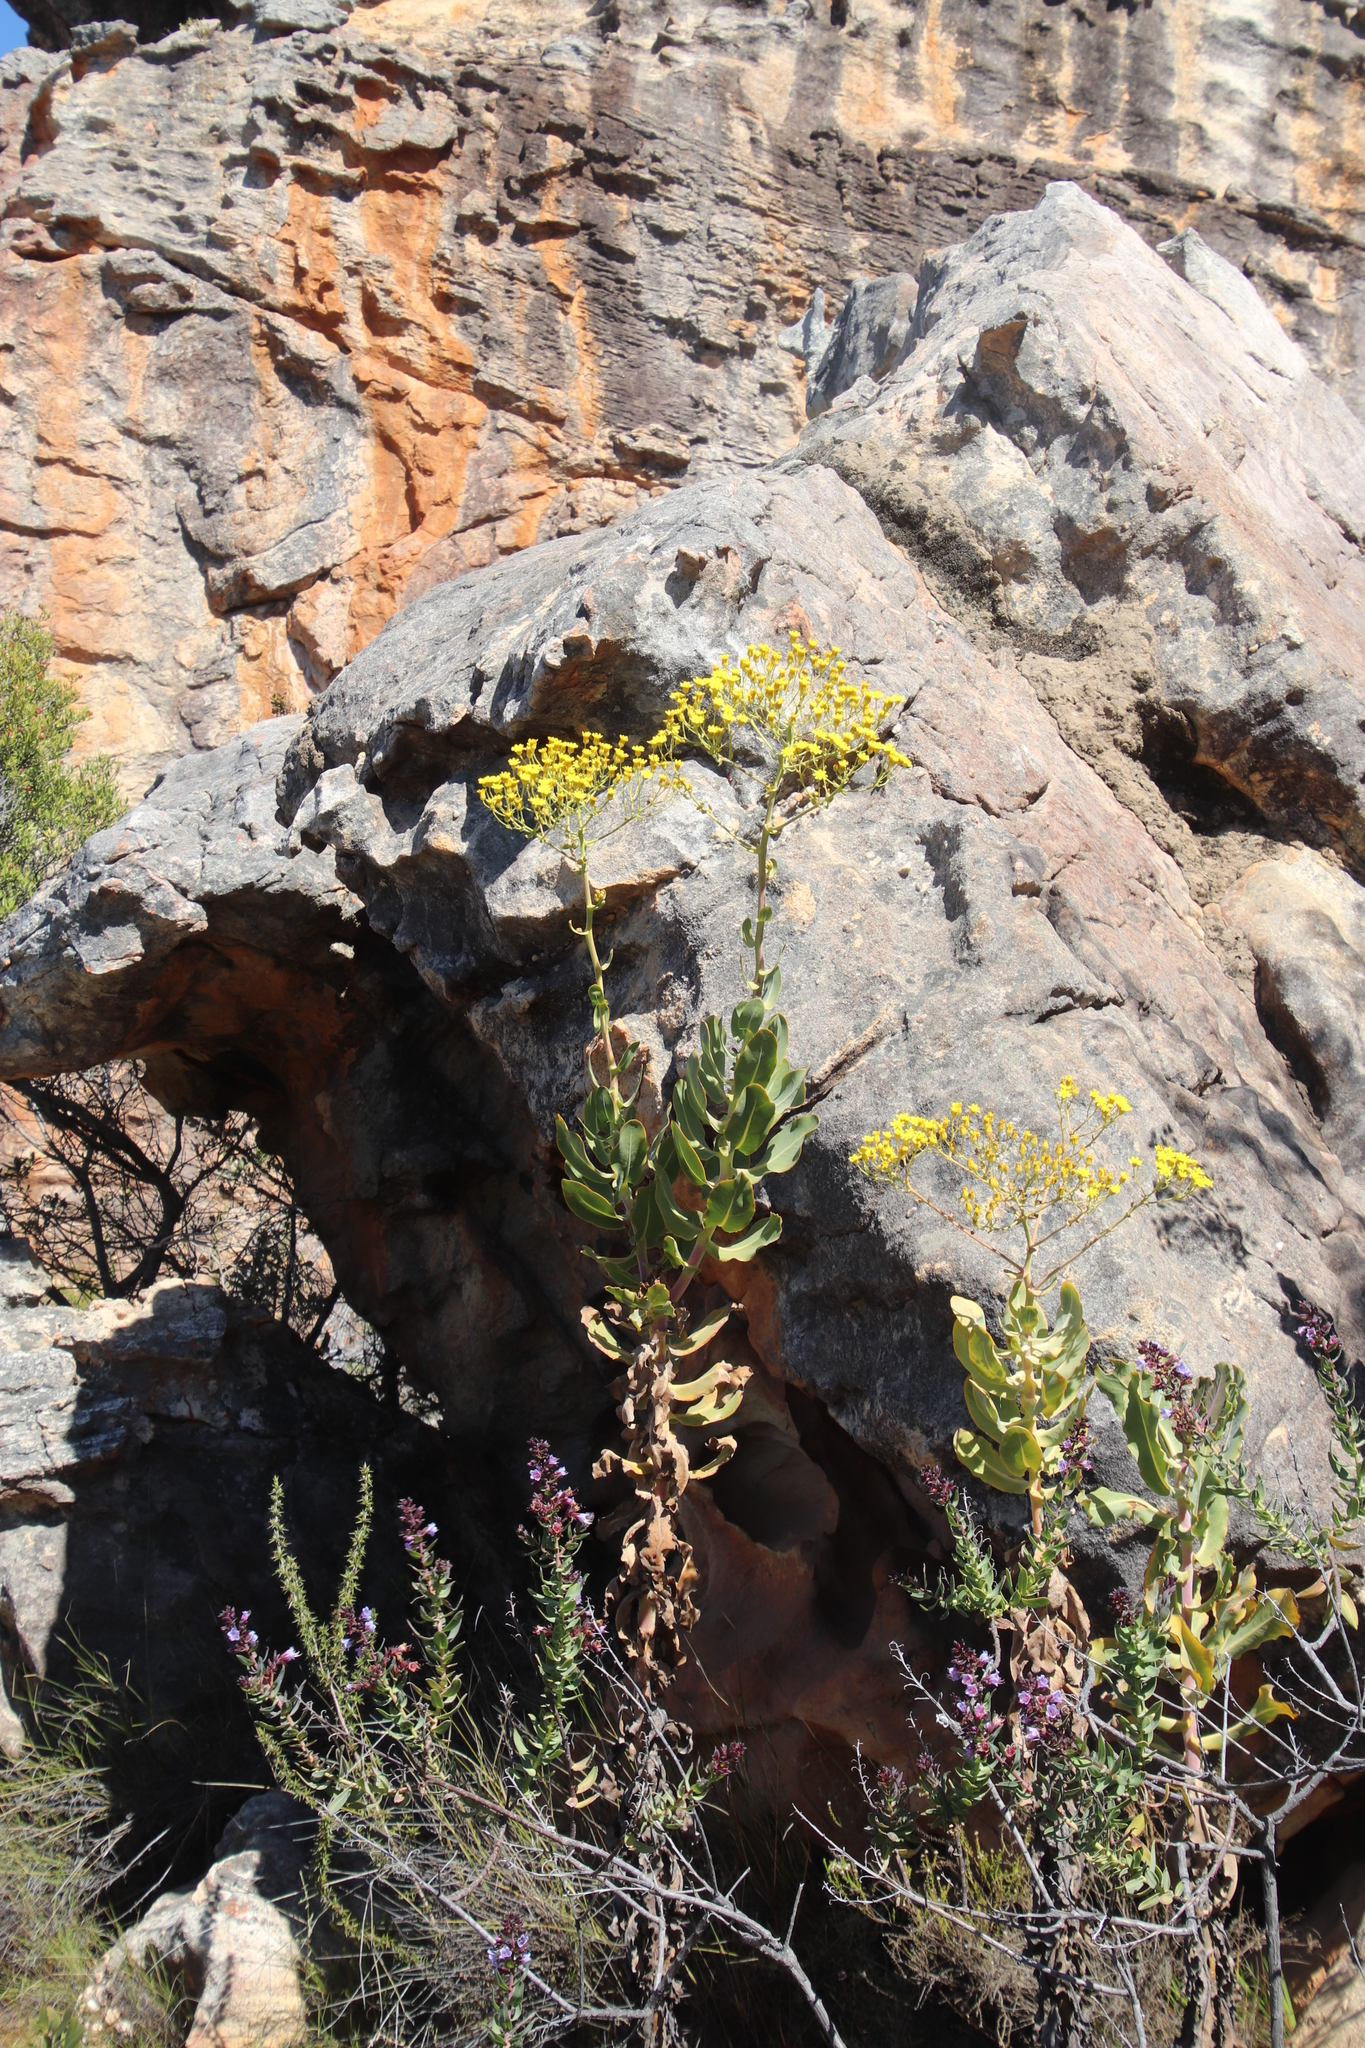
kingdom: Plantae
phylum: Tracheophyta
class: Magnoliopsida
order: Asterales
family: Asteraceae
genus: Othonna
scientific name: Othonna parviflora
